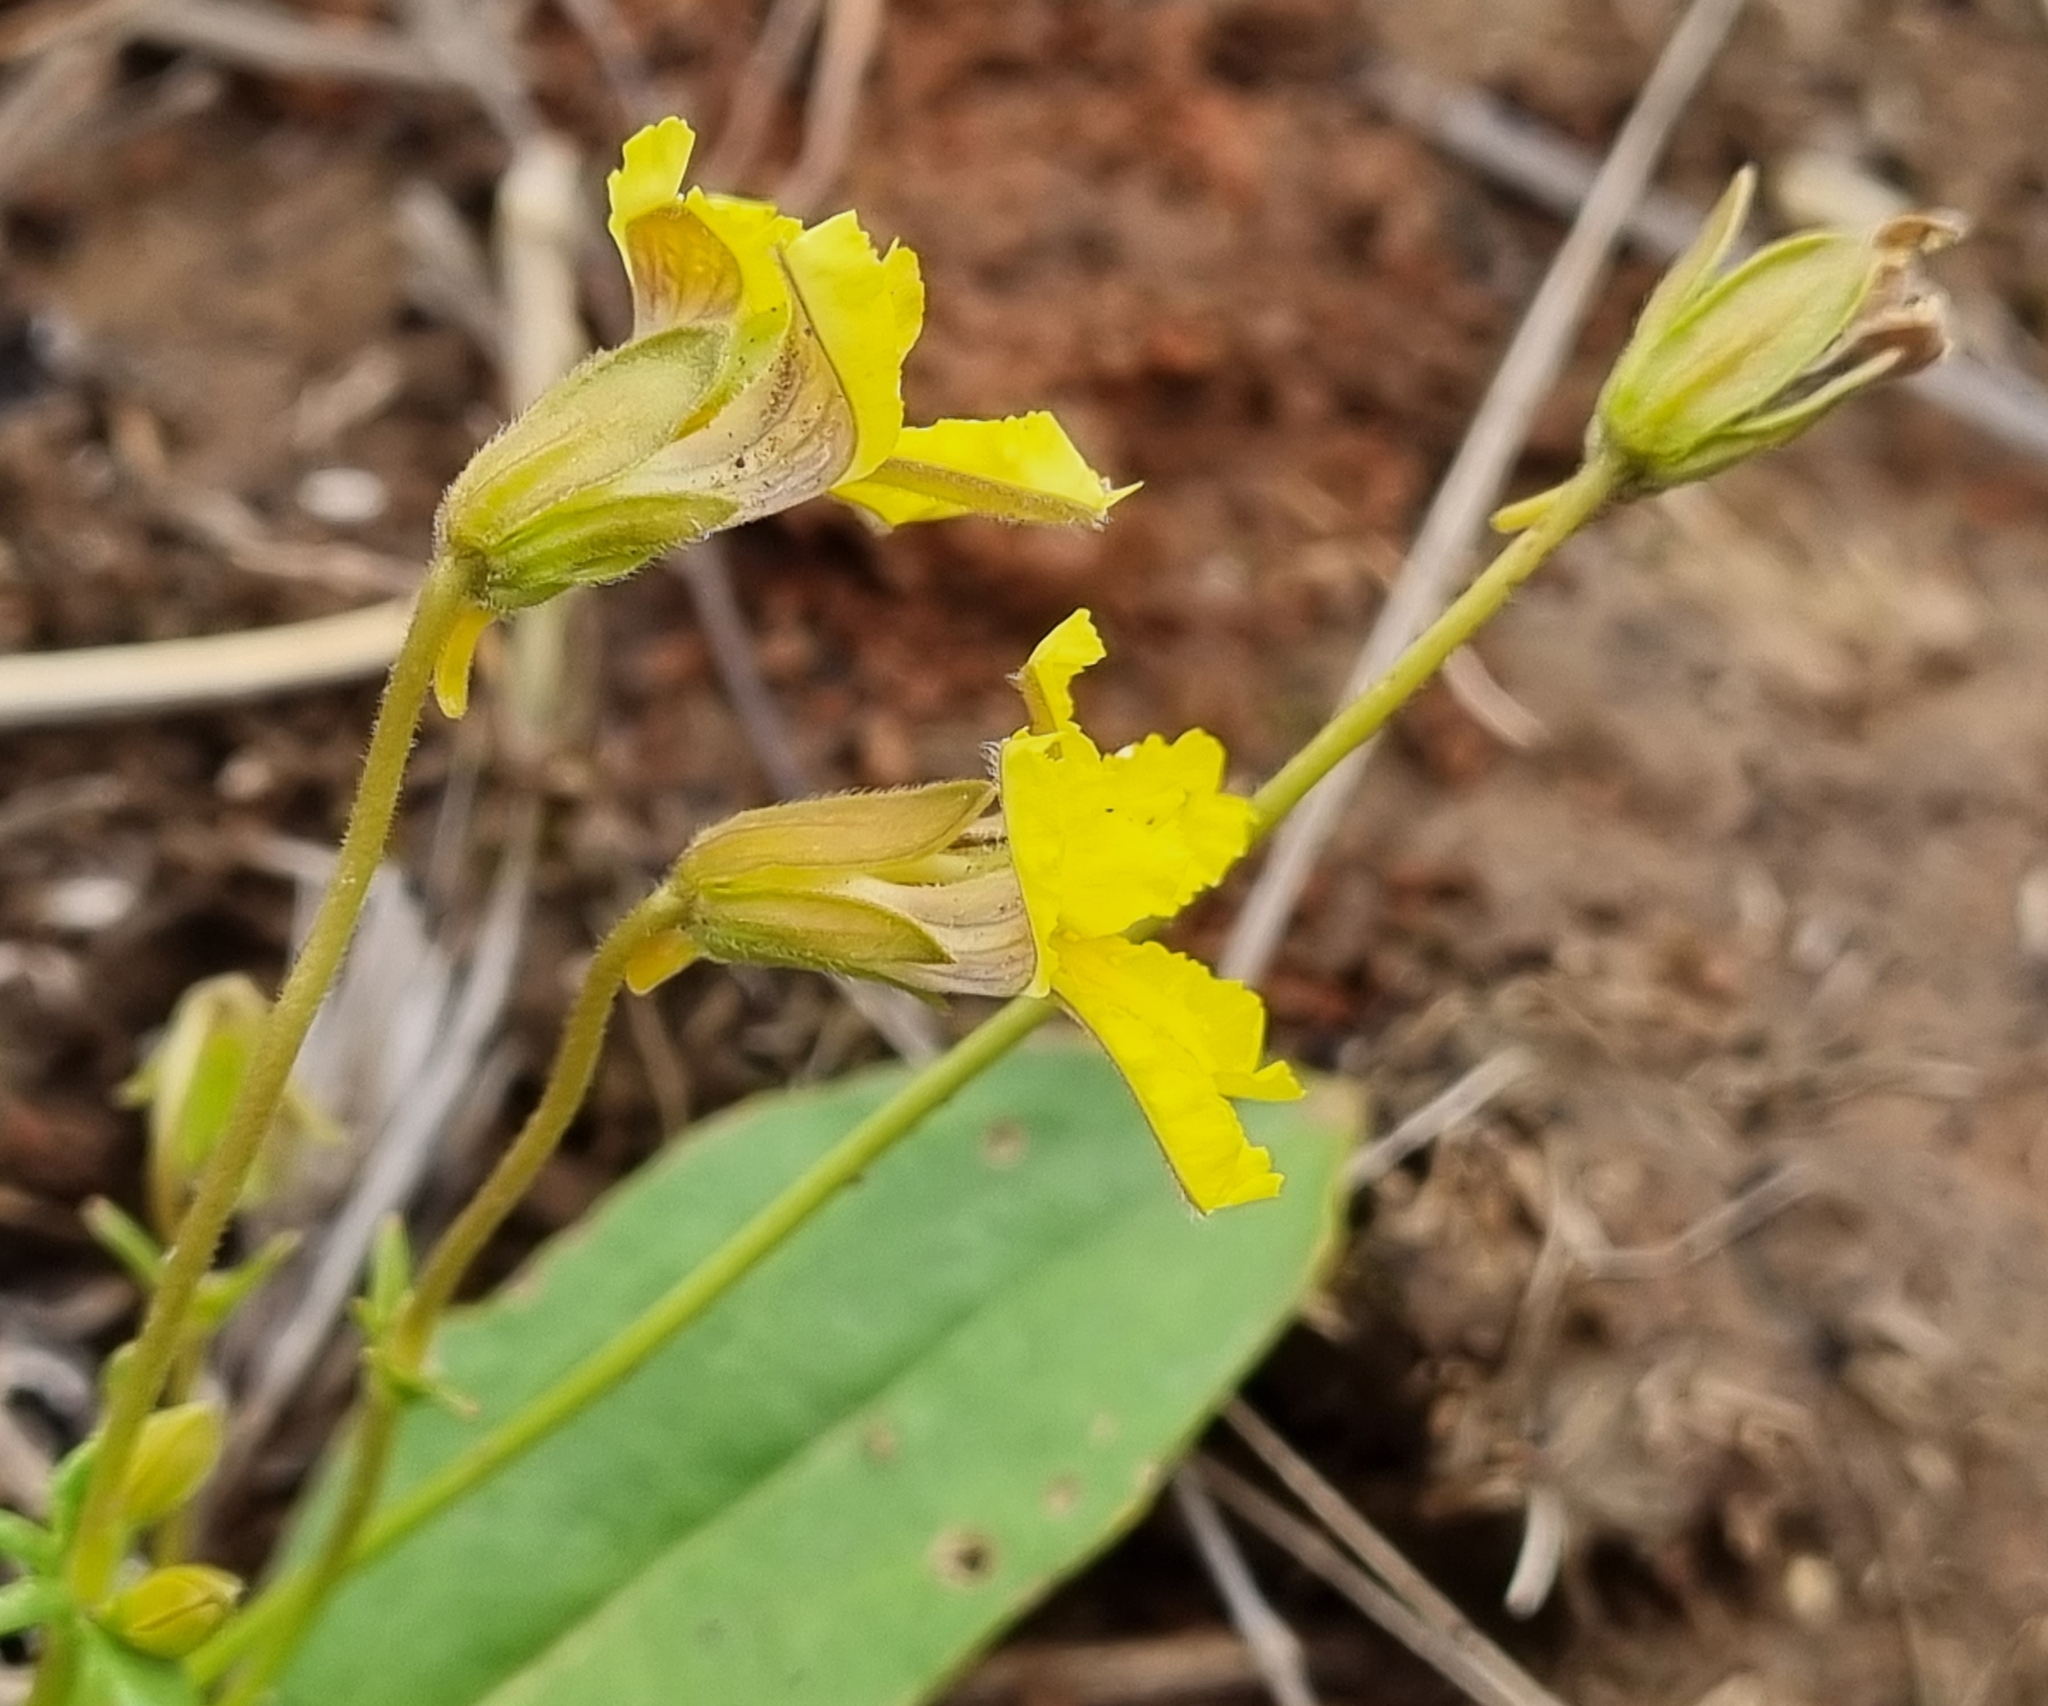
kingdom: Plantae
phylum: Tracheophyta
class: Magnoliopsida
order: Asterales
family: Goodeniaceae
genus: Goodenia
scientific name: Goodenia paradoxa
